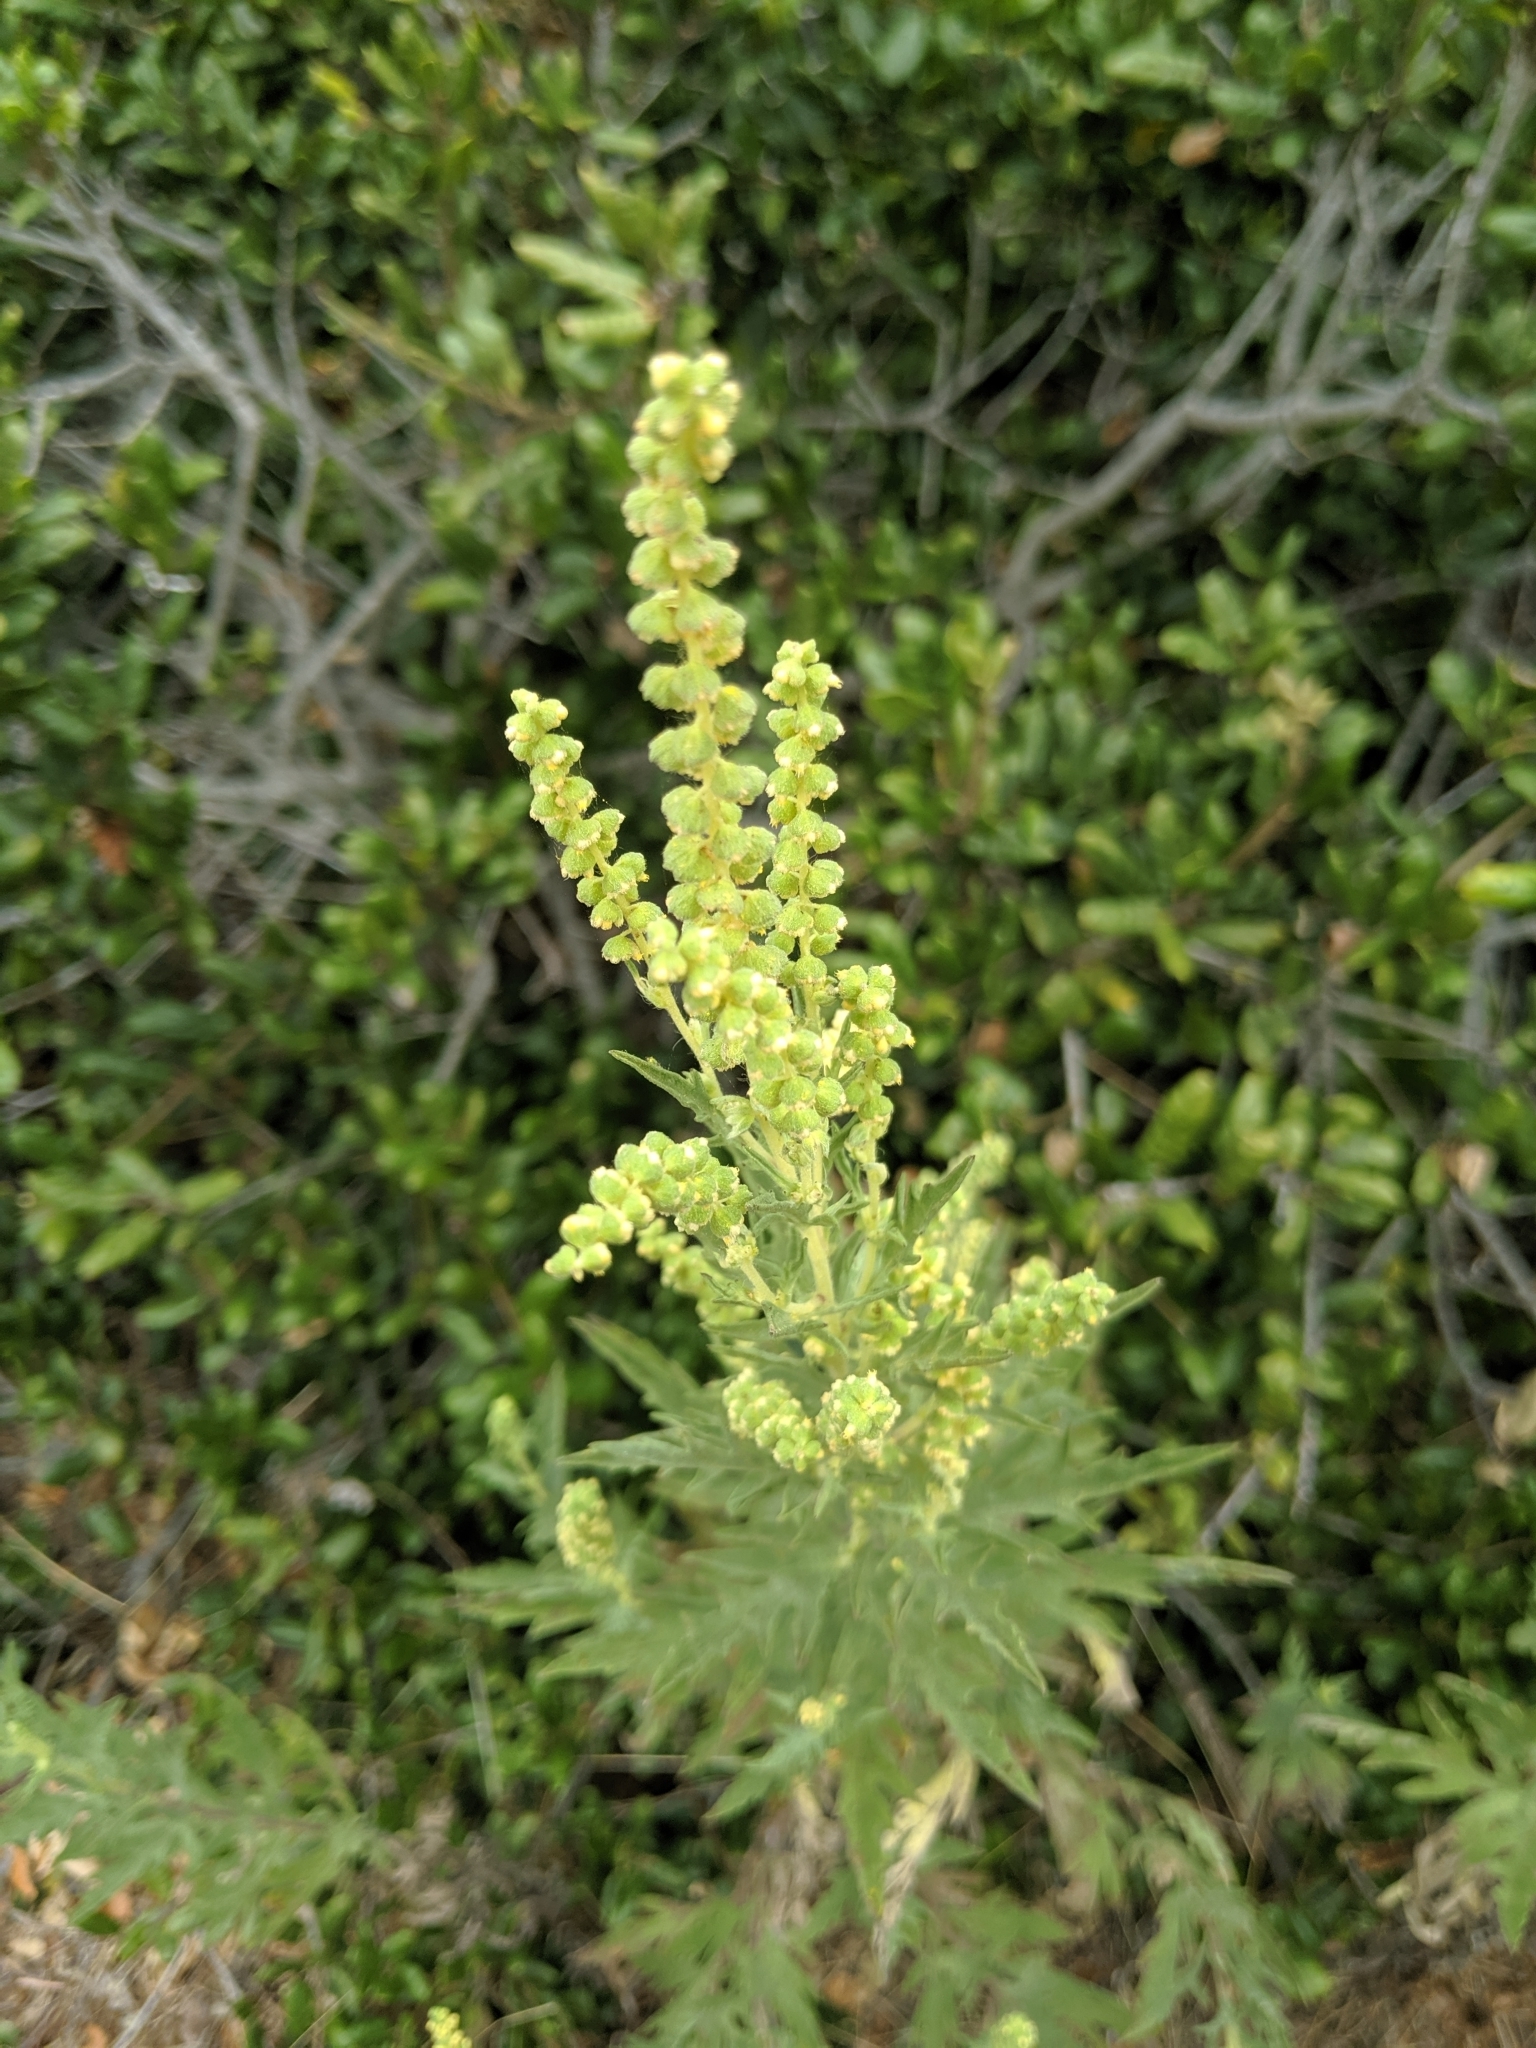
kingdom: Plantae
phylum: Tracheophyta
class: Magnoliopsida
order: Asterales
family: Asteraceae
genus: Ambrosia
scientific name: Ambrosia psilostachya
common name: Perennial ragweed
